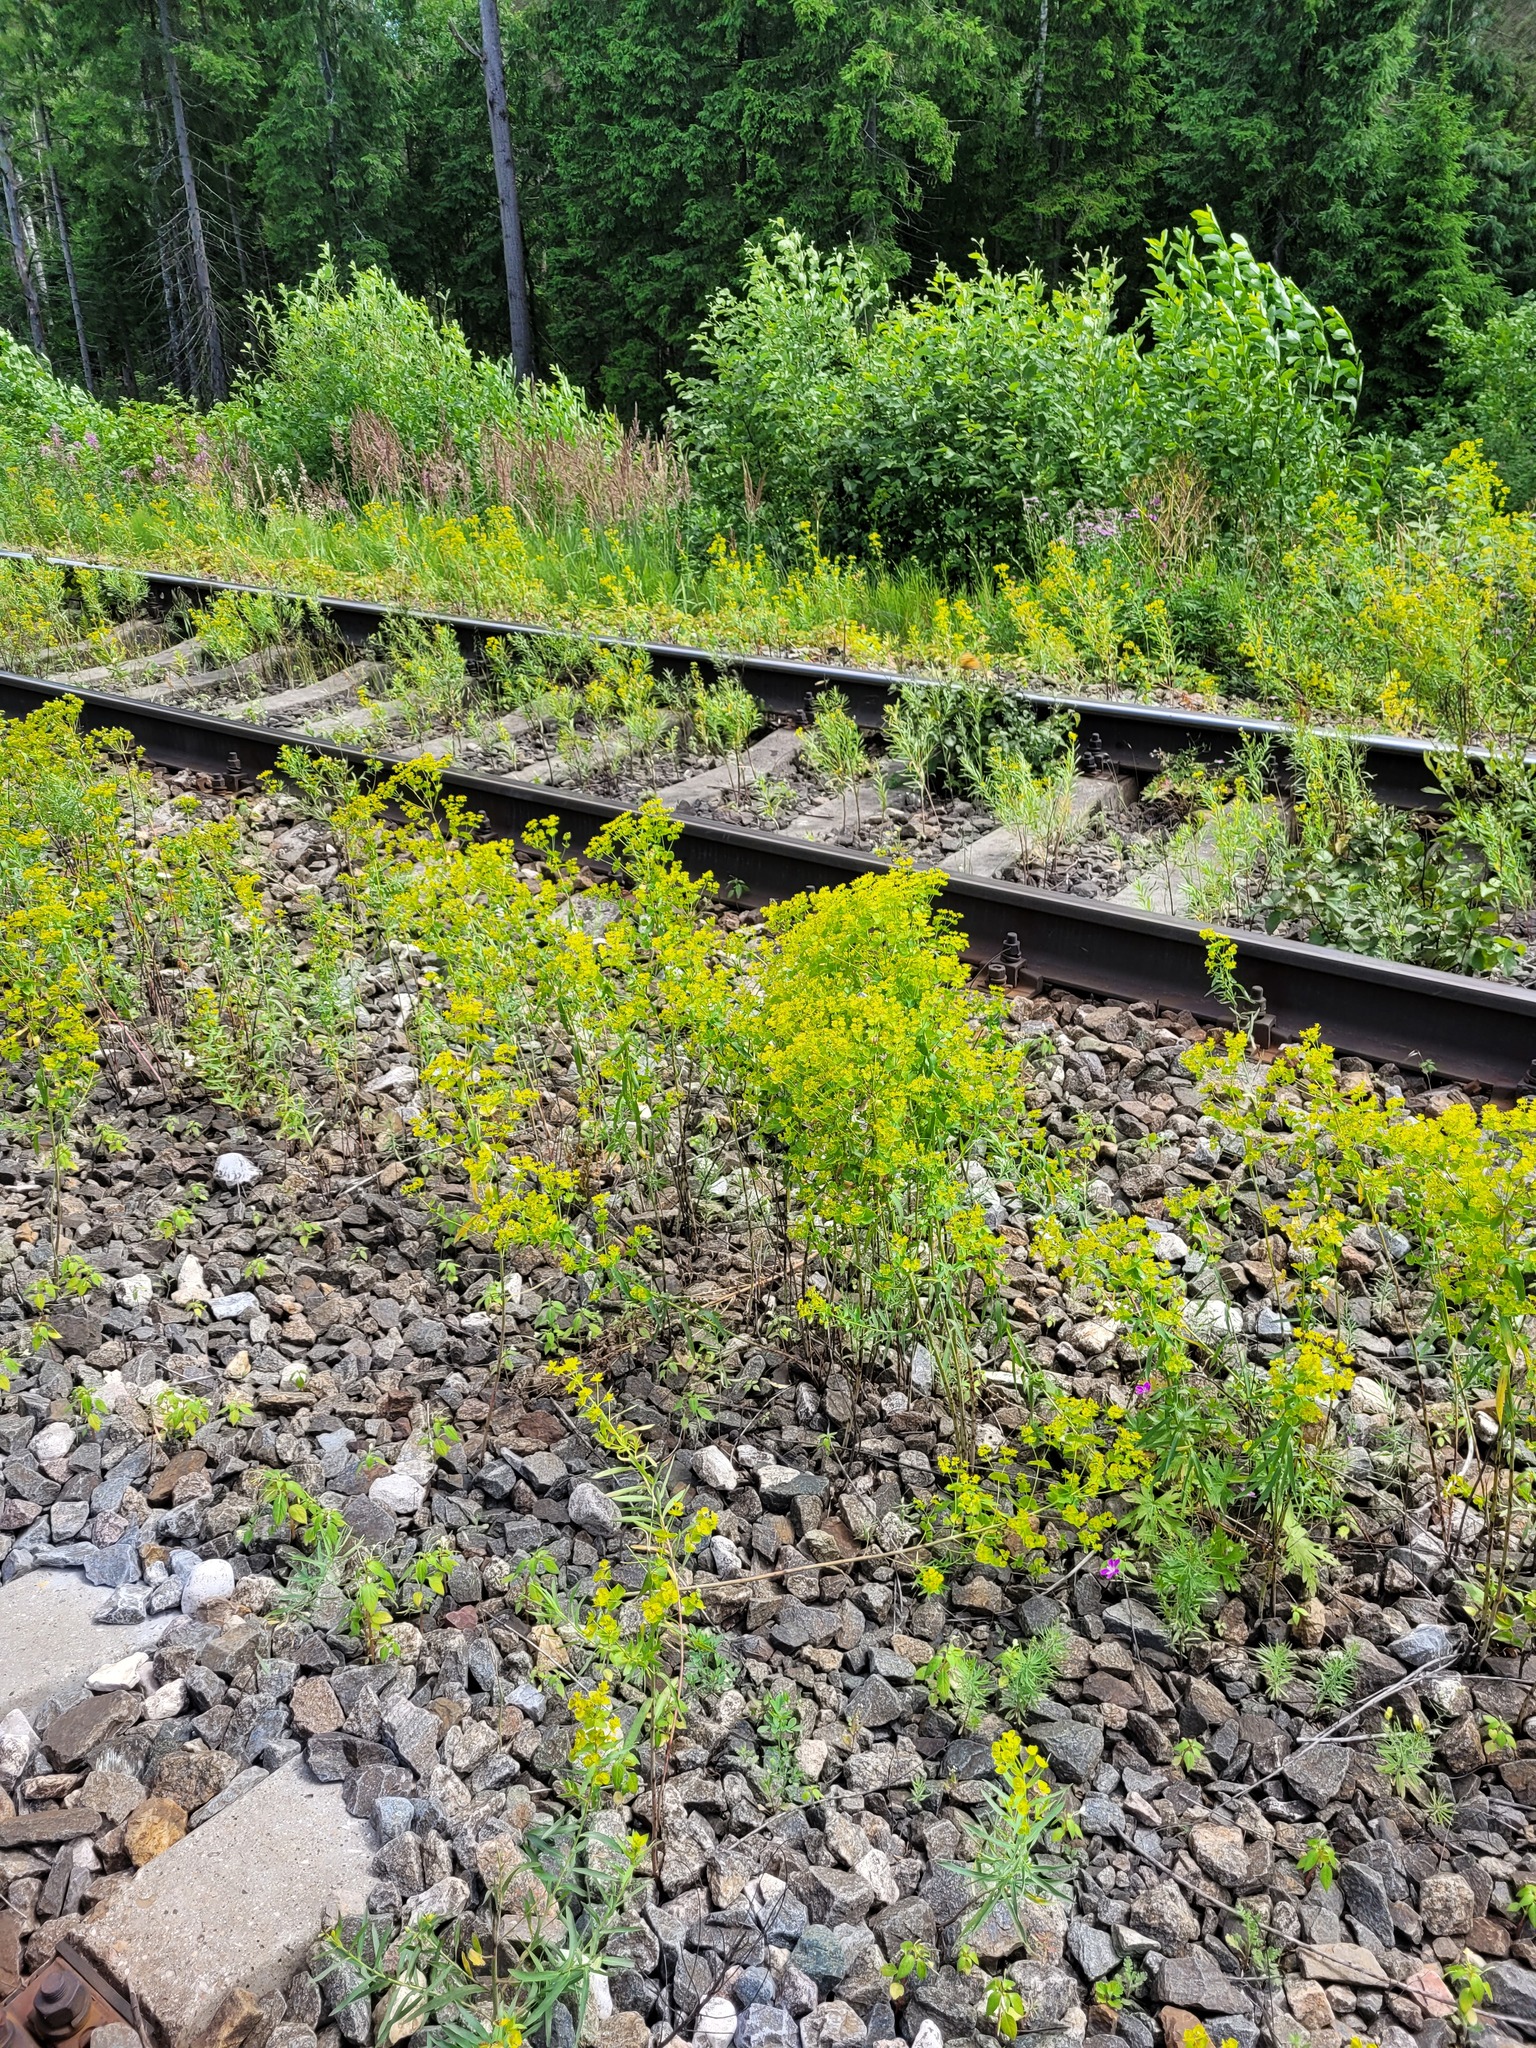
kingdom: Plantae
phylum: Tracheophyta
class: Magnoliopsida
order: Malpighiales
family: Euphorbiaceae
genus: Euphorbia
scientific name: Euphorbia virgata
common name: Leafy spurge
